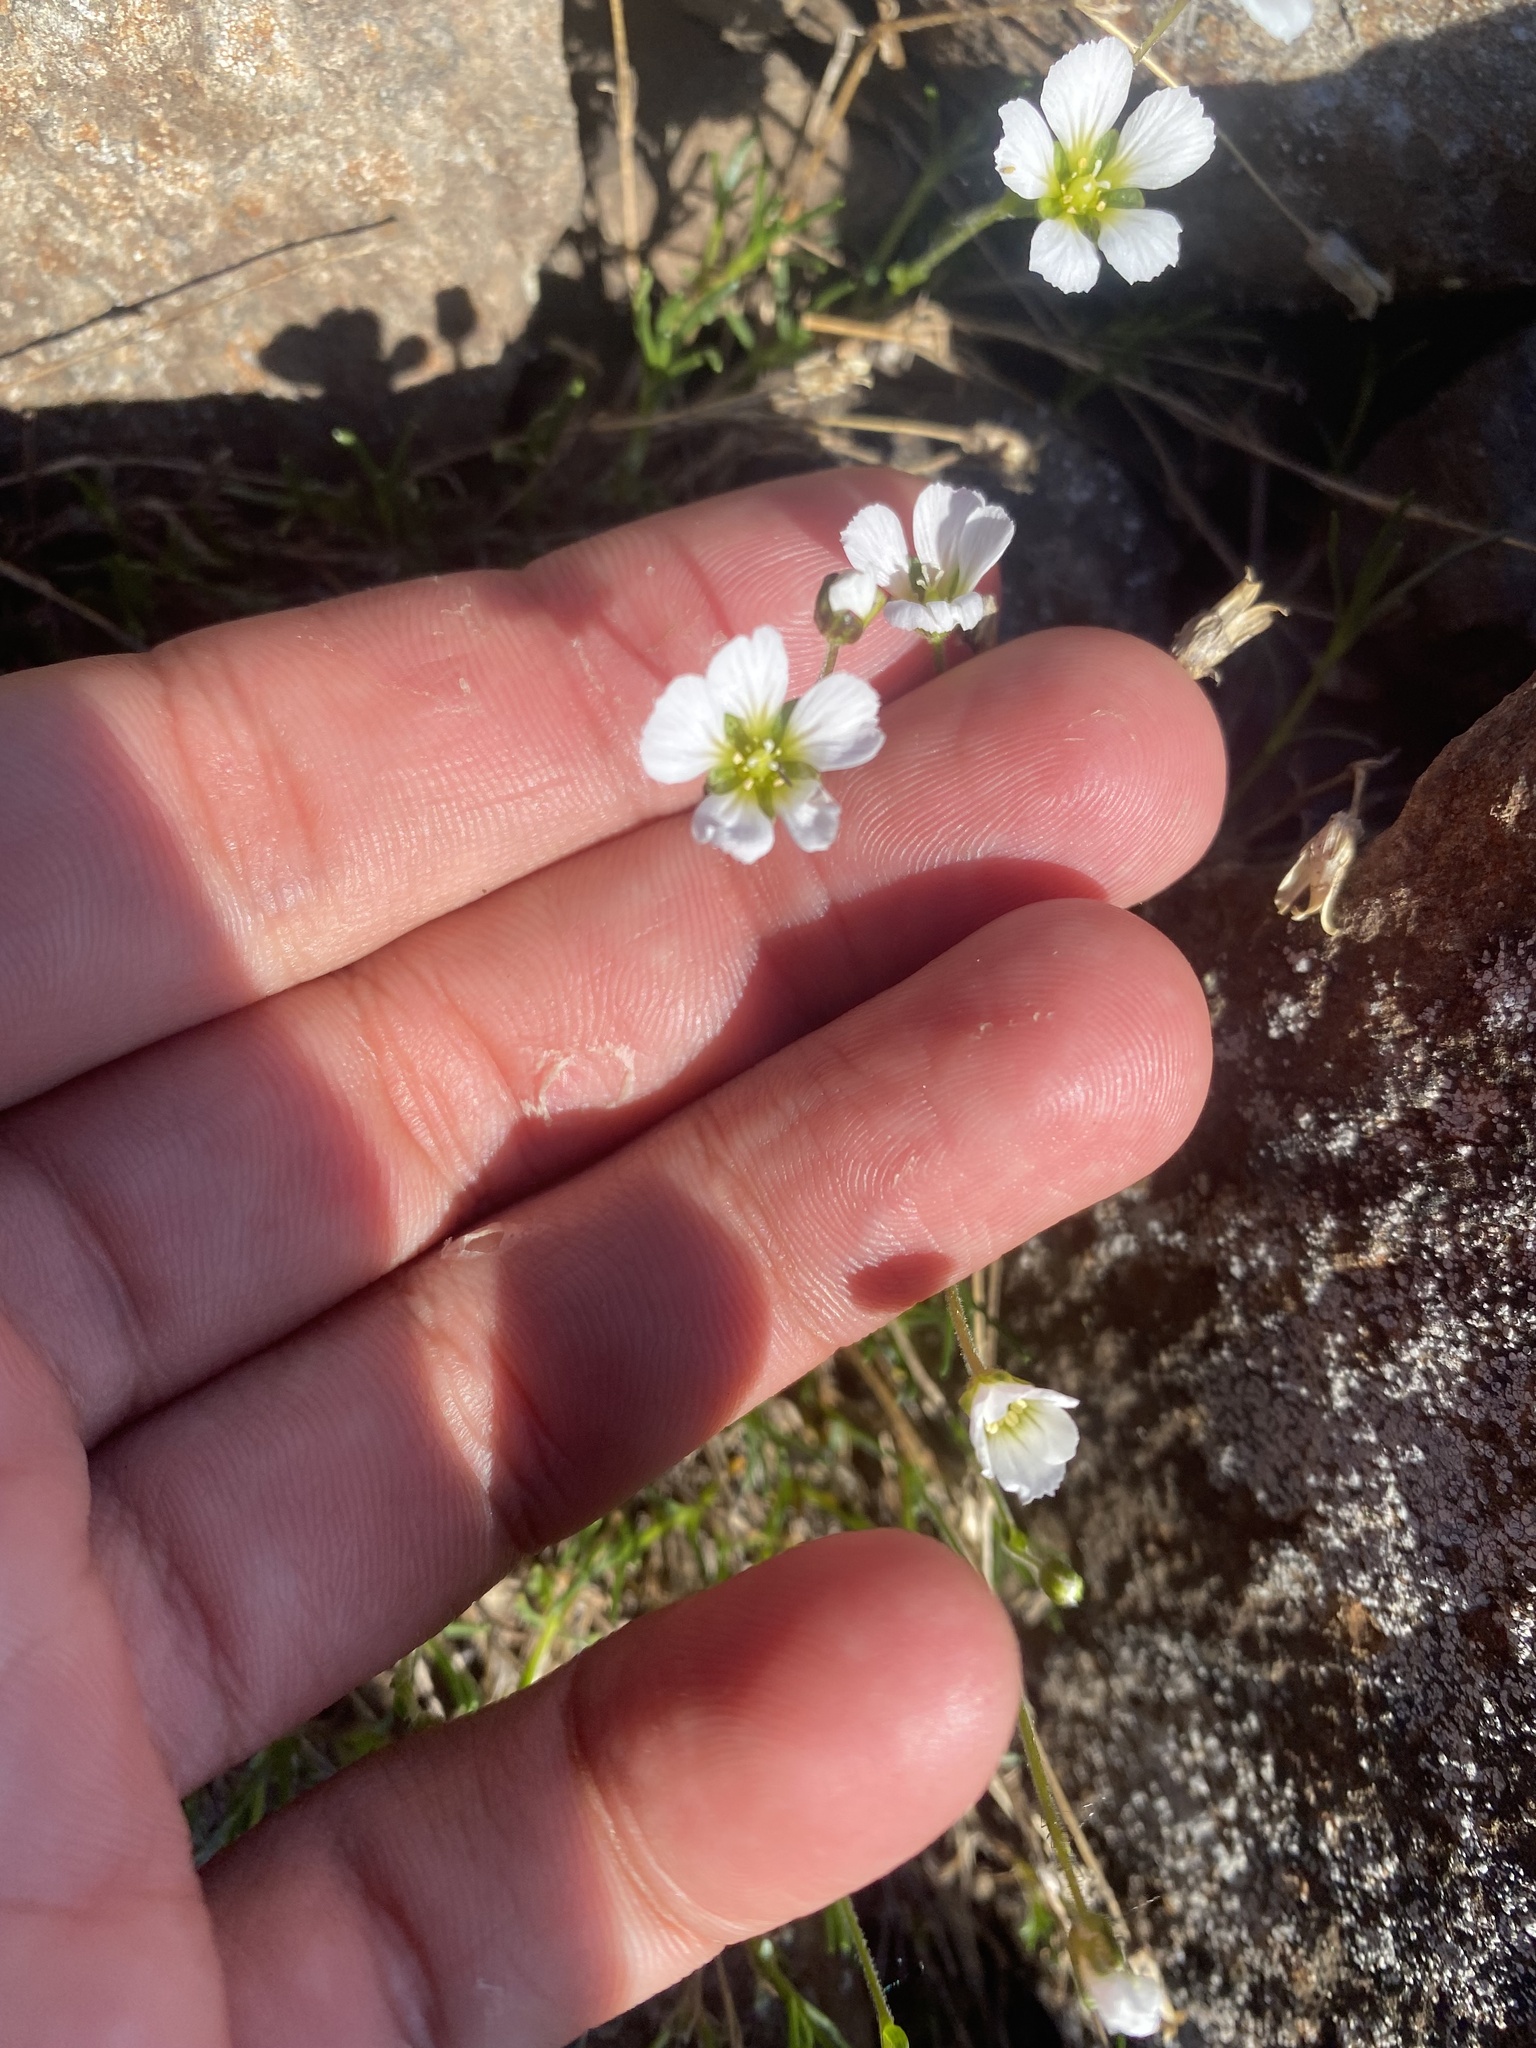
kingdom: Plantae
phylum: Tracheophyta
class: Magnoliopsida
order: Caryophyllales
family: Caryophyllaceae
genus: Cherleria
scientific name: Cherleria arctica
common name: Arctic sandwort
